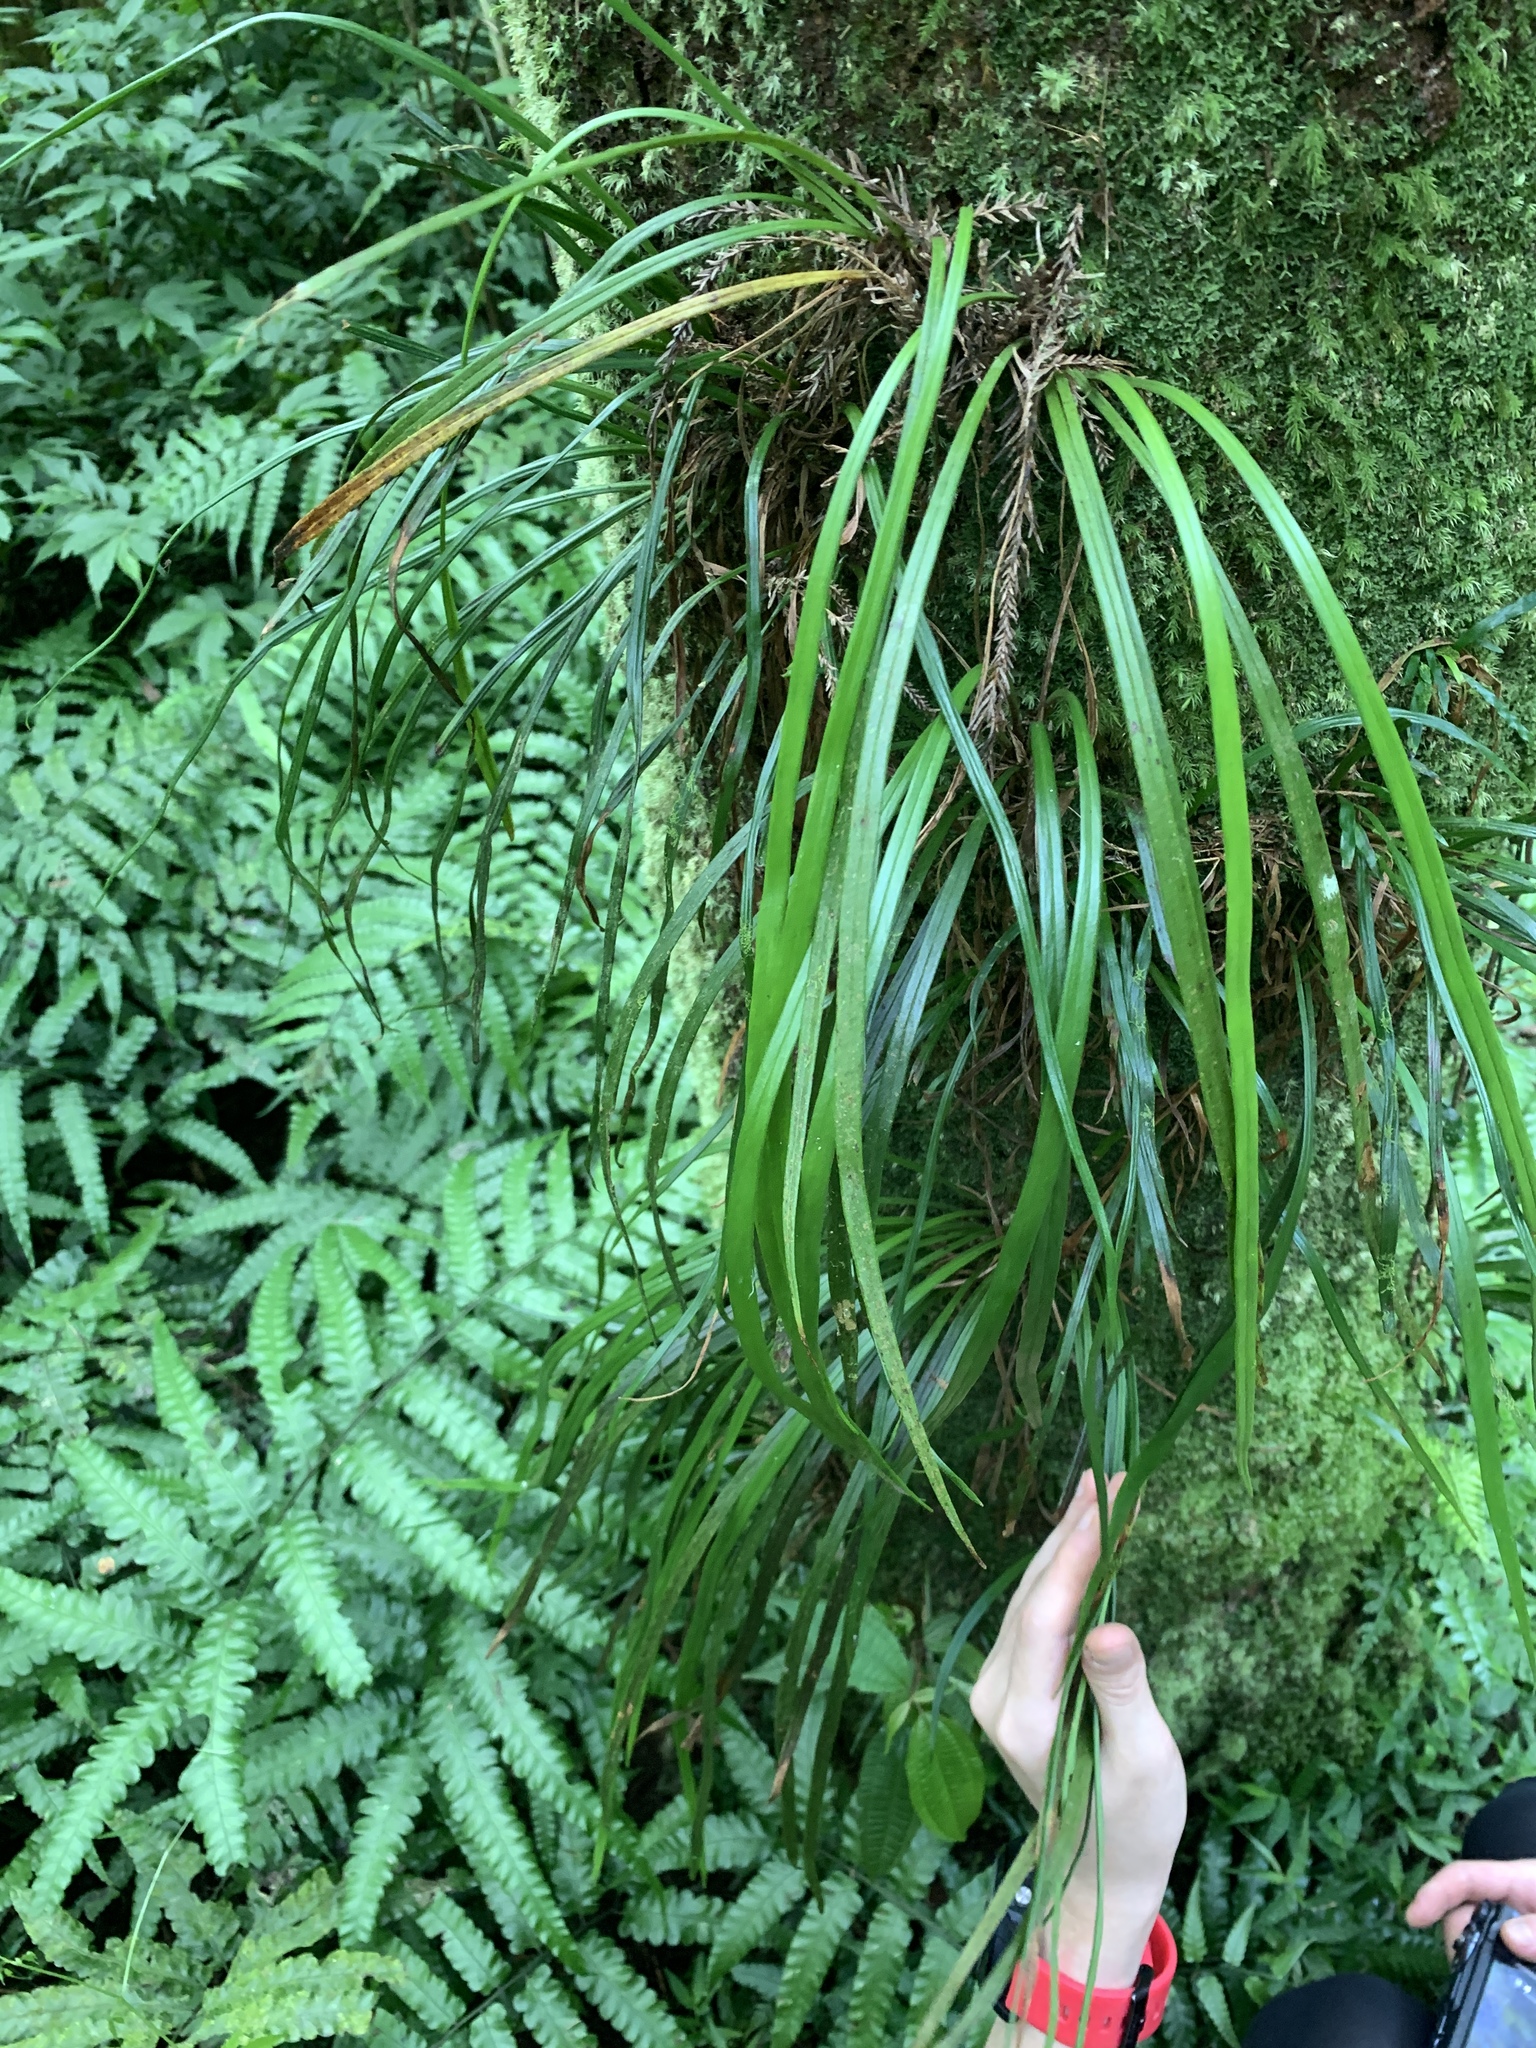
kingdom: Plantae
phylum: Tracheophyta
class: Polypodiopsida
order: Polypodiales
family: Pteridaceae
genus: Haplopteris
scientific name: Haplopteris flexuosa
